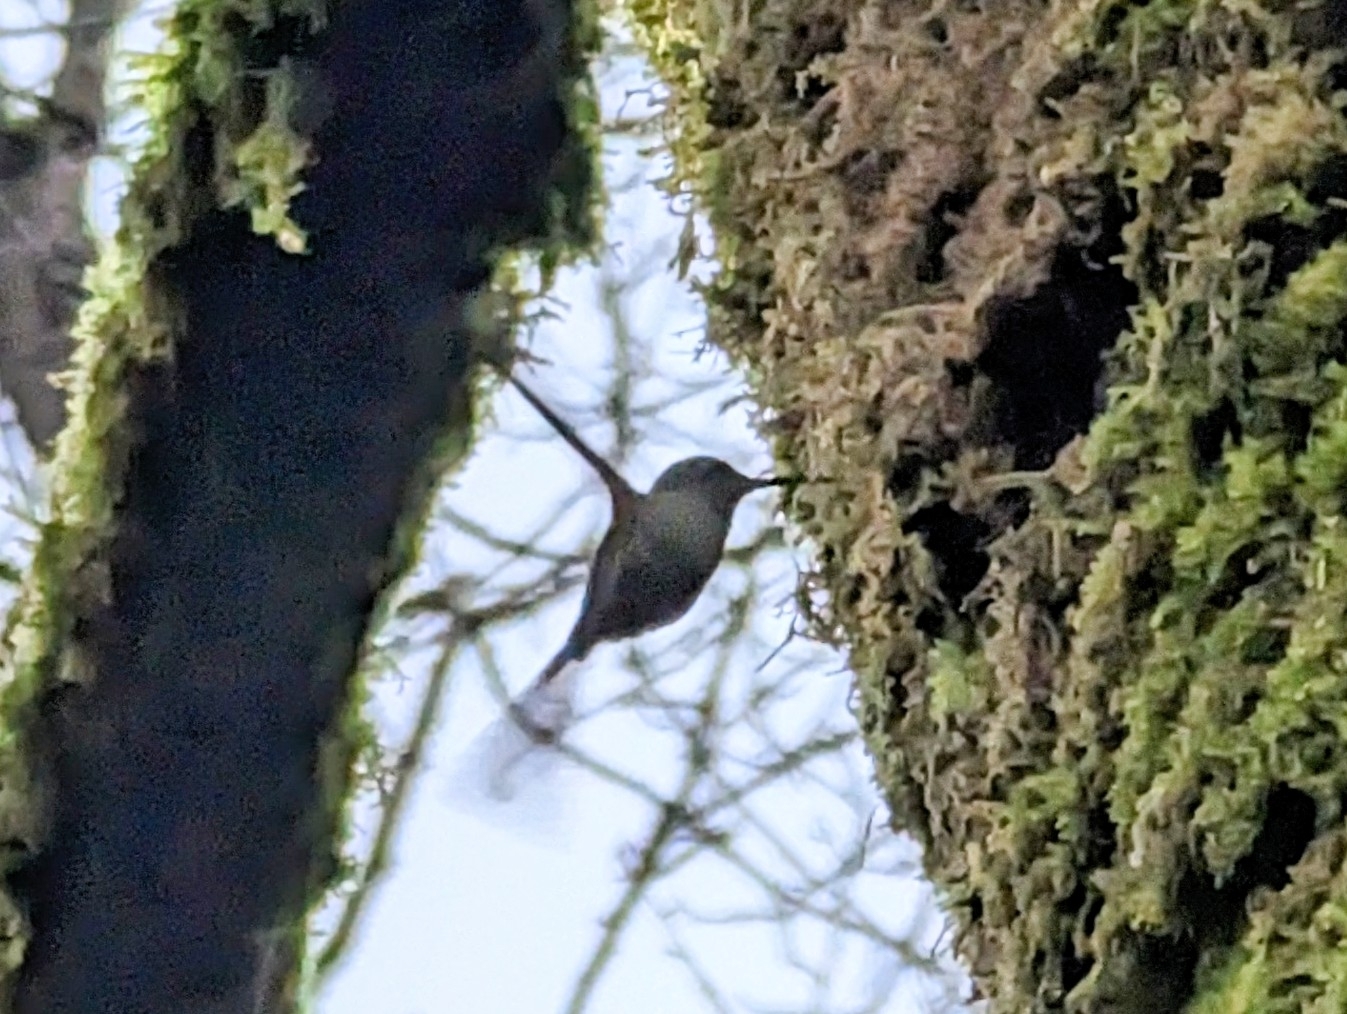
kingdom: Animalia
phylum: Chordata
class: Aves
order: Apodiformes
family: Trochilidae
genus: Calypte
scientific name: Calypte anna
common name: Anna's hummingbird
